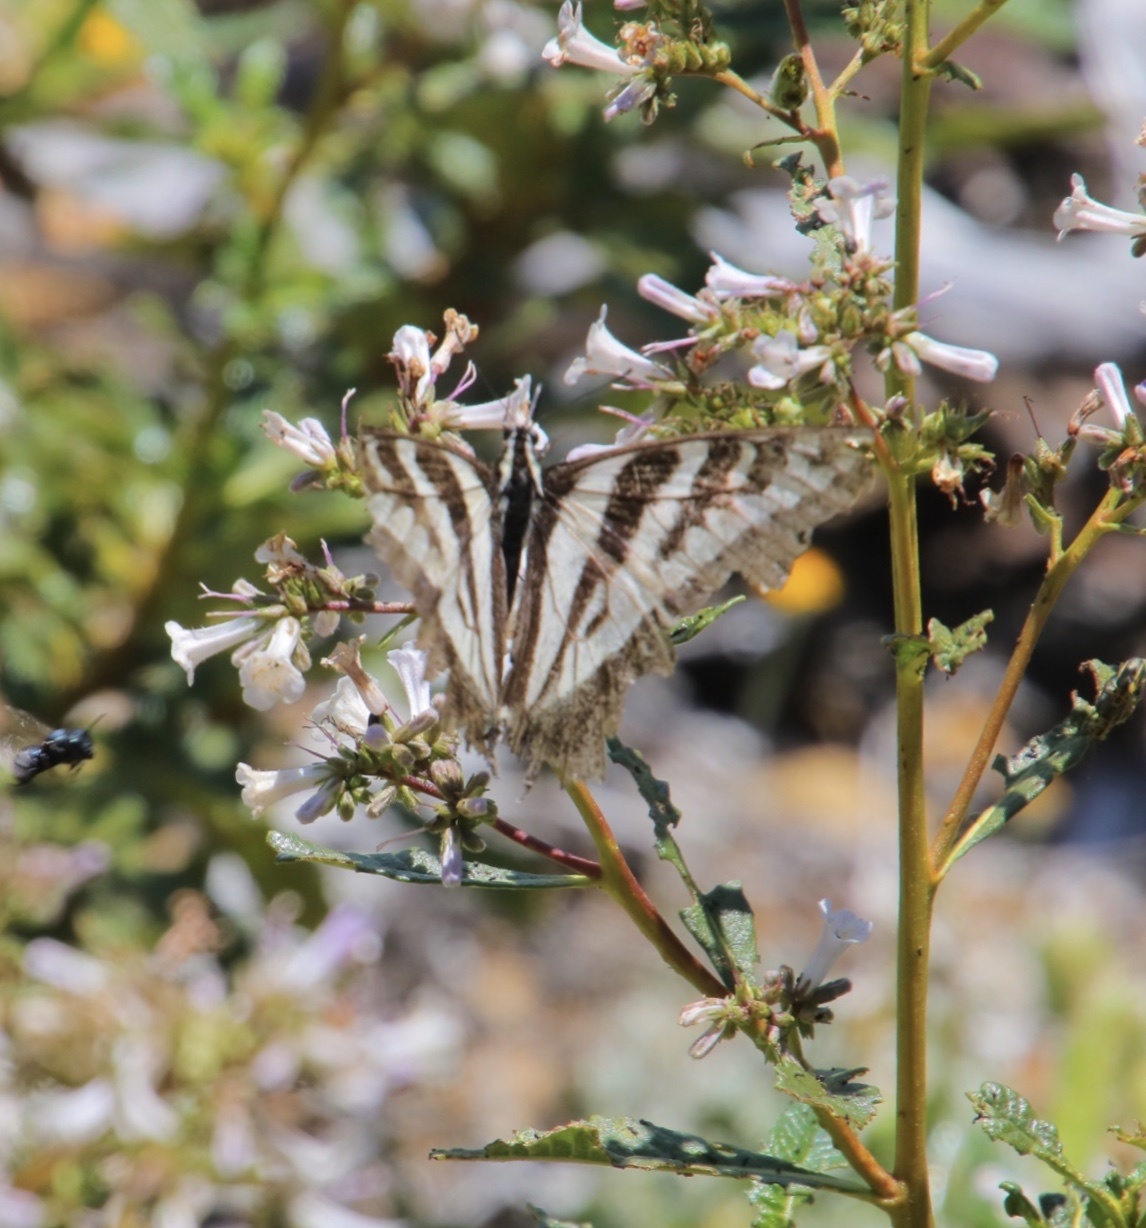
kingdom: Animalia
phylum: Arthropoda
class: Insecta
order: Lepidoptera
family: Papilionidae
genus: Papilio
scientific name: Papilio eurymedon
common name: Pale tiger swallowtail
